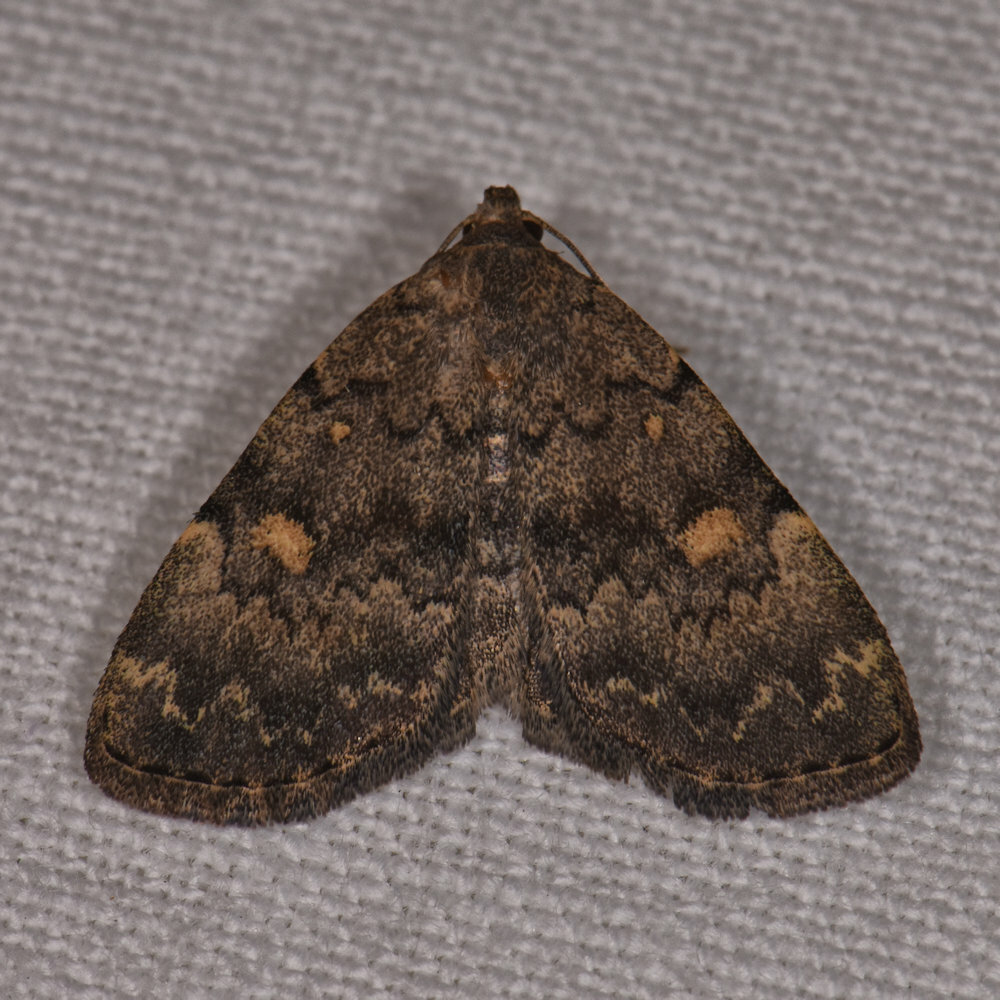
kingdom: Animalia
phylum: Arthropoda
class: Insecta
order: Lepidoptera
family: Erebidae
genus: Idia
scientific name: Idia aemula
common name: Common idia moth
